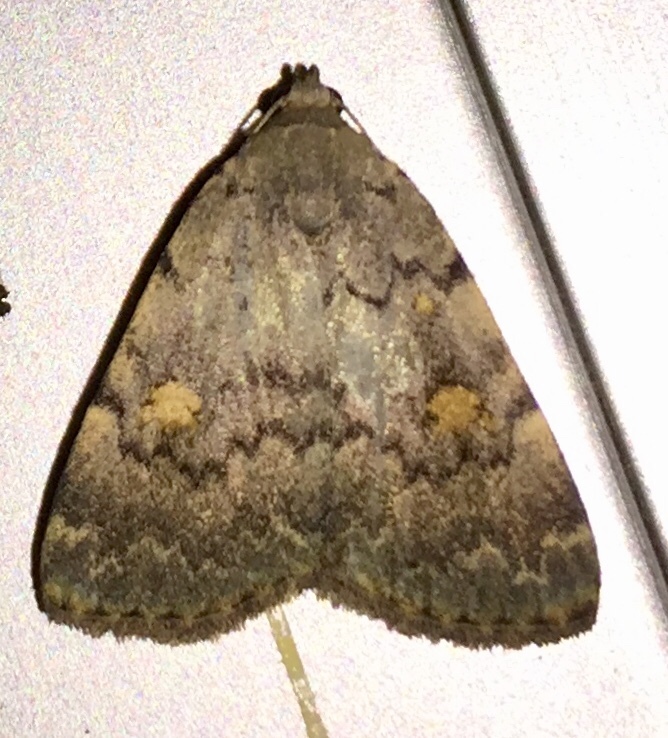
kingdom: Animalia
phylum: Arthropoda
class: Insecta
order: Lepidoptera
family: Erebidae
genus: Idia
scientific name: Idia aemula
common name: Common idia moth
